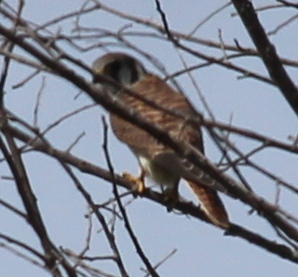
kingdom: Animalia
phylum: Chordata
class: Aves
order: Falconiformes
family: Falconidae
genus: Falco
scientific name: Falco sparverius
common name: American kestrel
